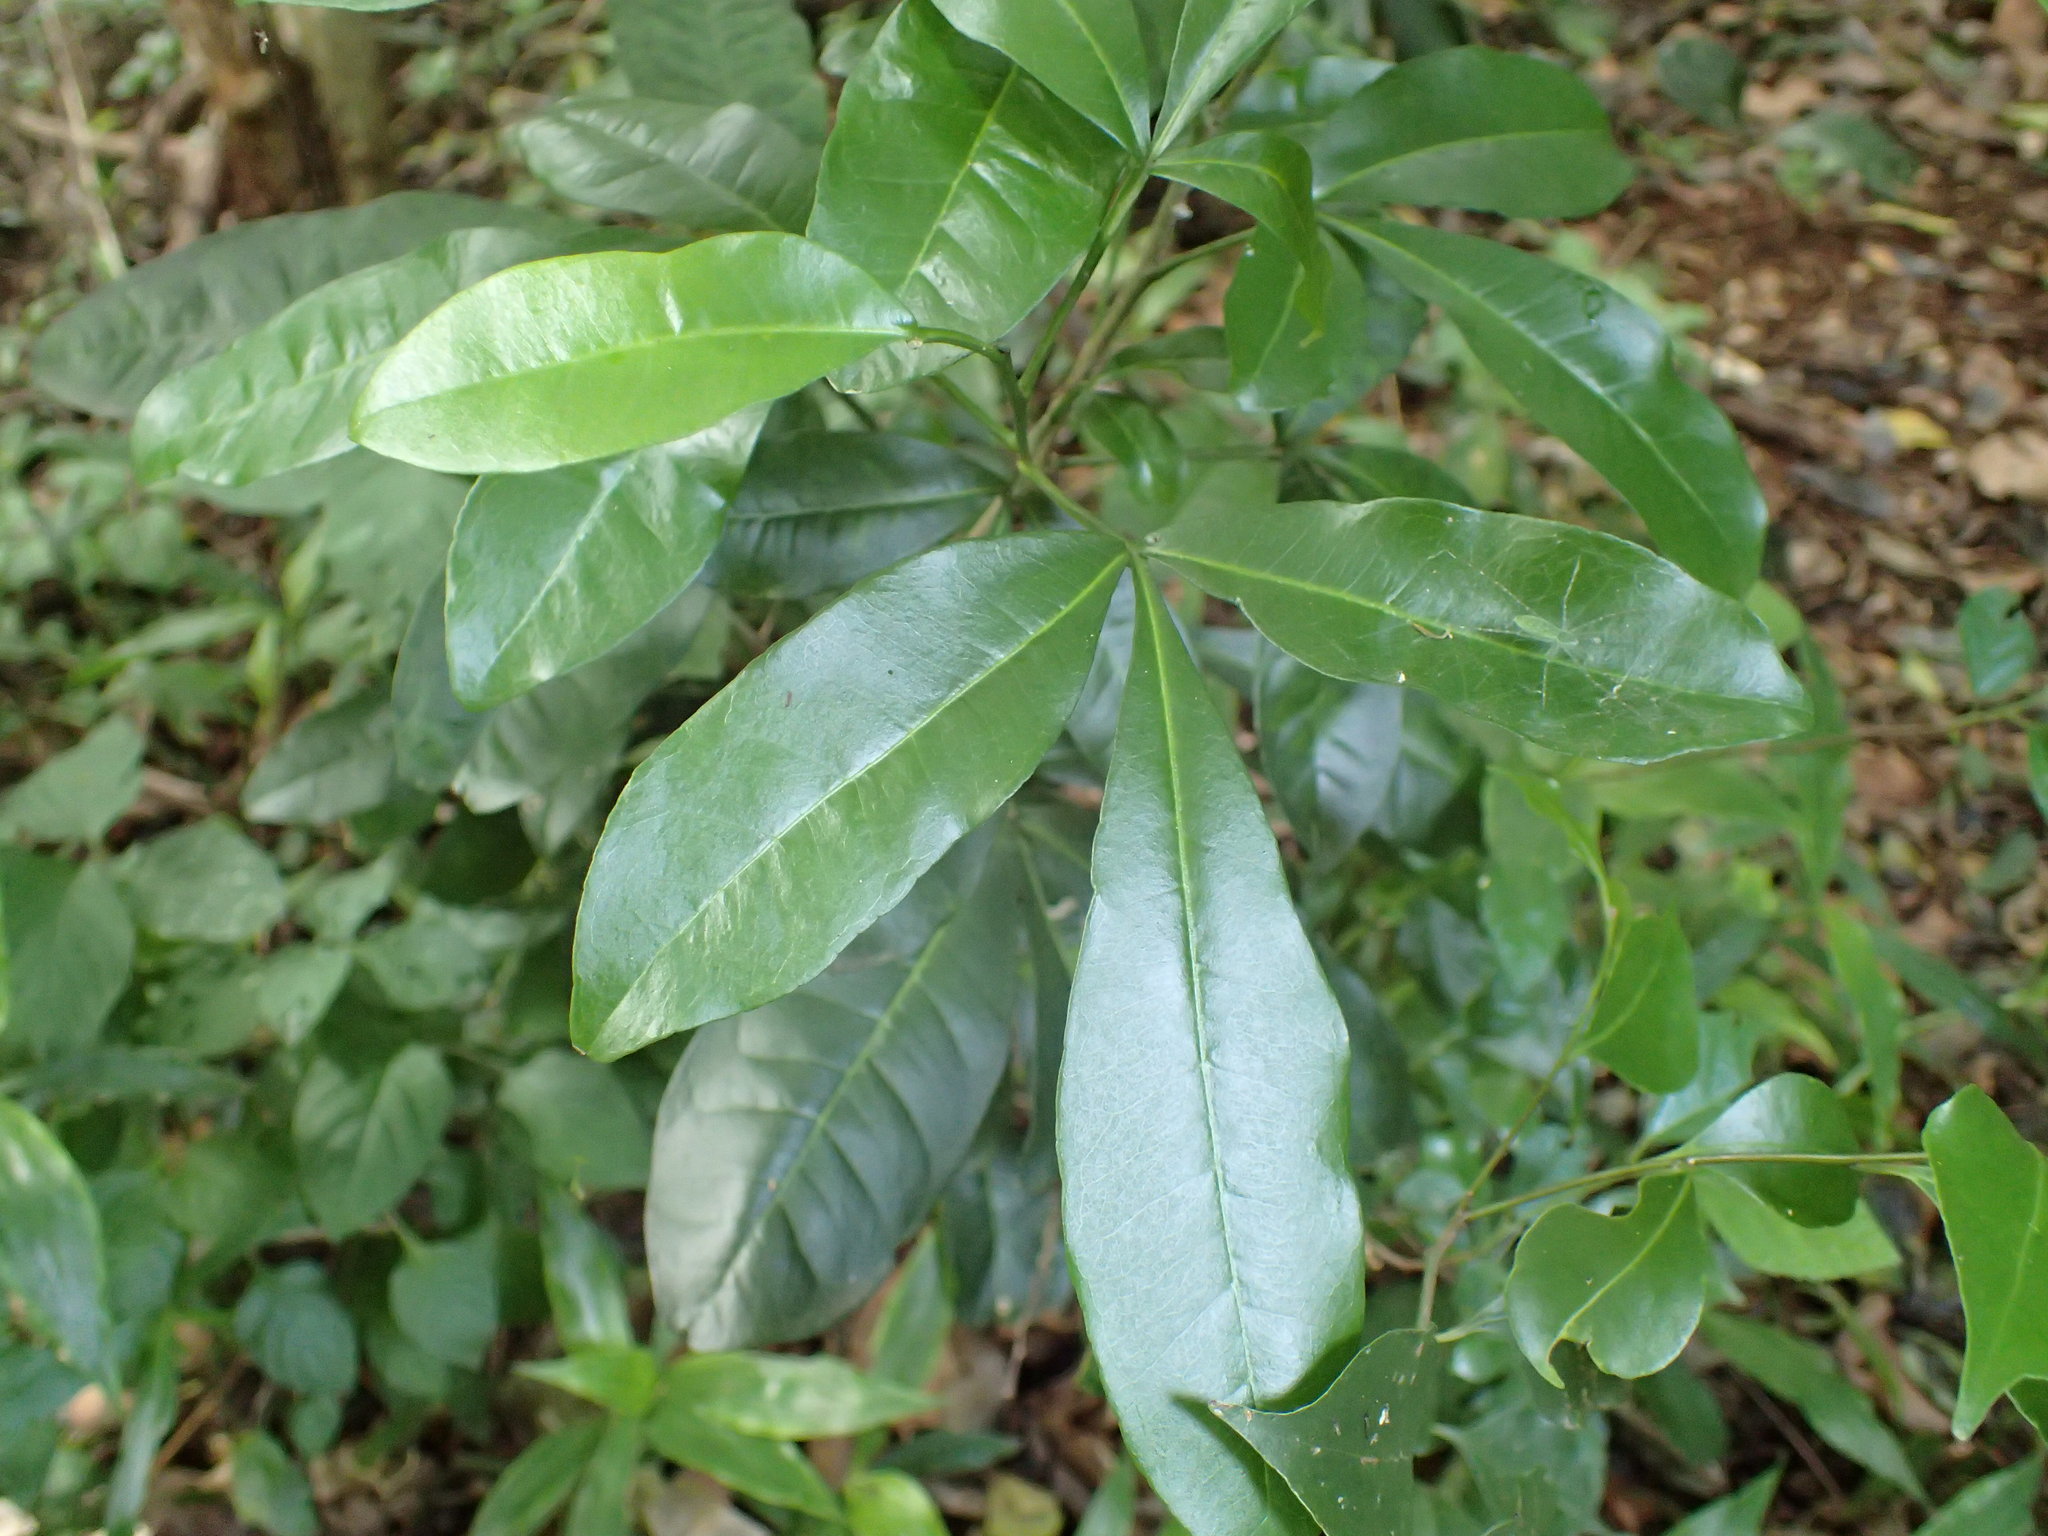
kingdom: Plantae
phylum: Tracheophyta
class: Magnoliopsida
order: Sapindales
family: Rutaceae
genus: Vepris
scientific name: Vepris trichocarpa
